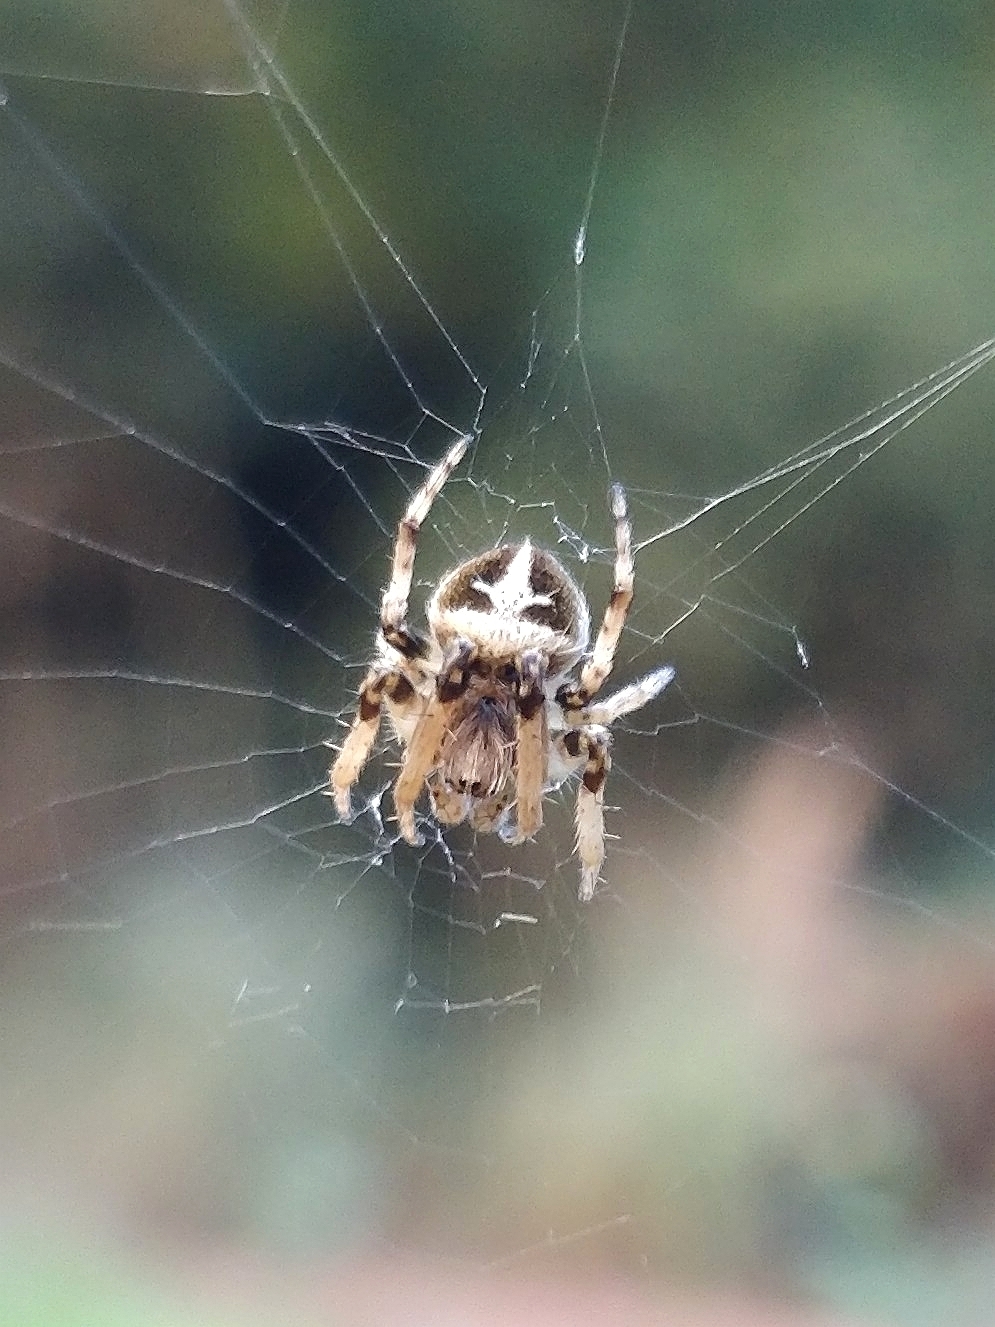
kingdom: Animalia
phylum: Arthropoda
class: Arachnida
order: Araneae
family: Araneidae
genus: Agalenatea
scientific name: Agalenatea redii
